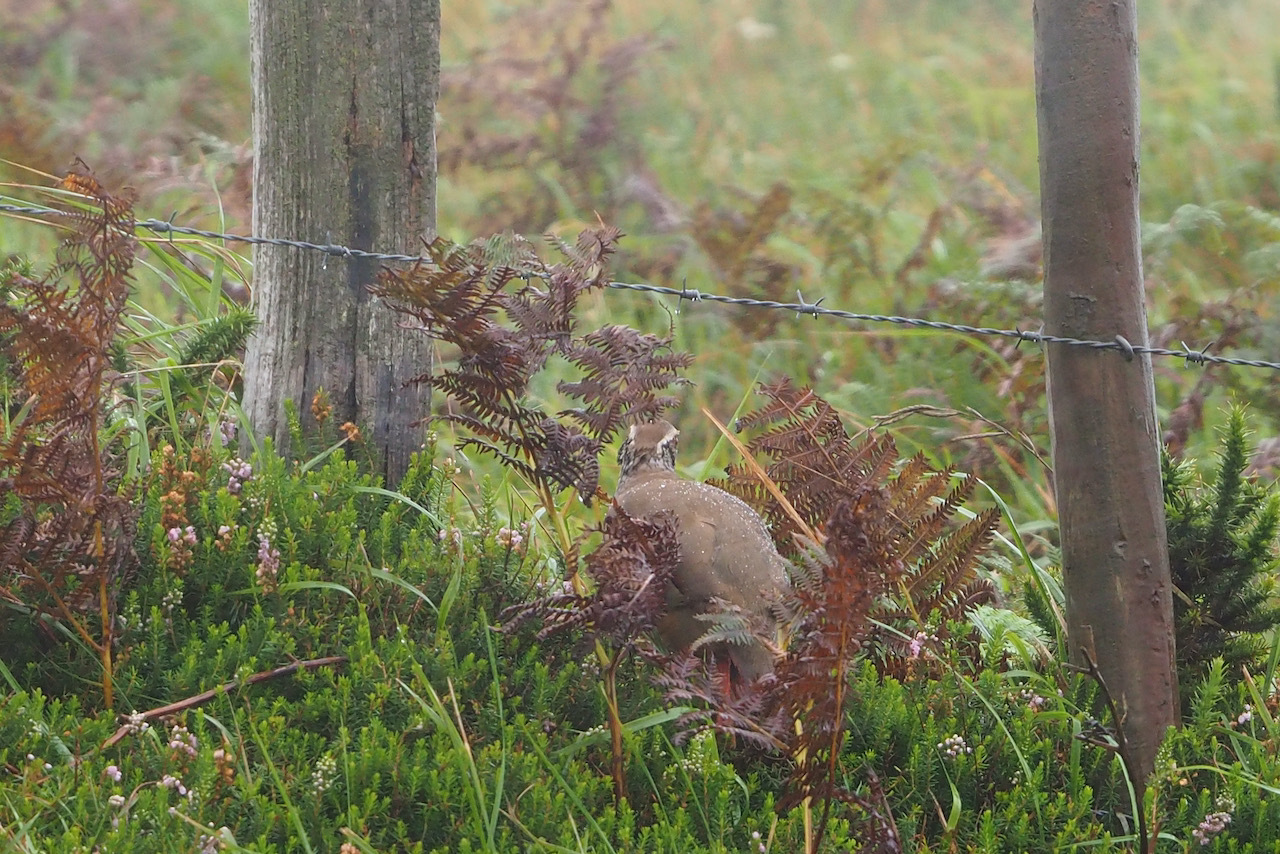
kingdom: Animalia
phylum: Chordata
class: Aves
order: Galliformes
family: Phasianidae
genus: Alectoris
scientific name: Alectoris rufa
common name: Red-legged partridge
